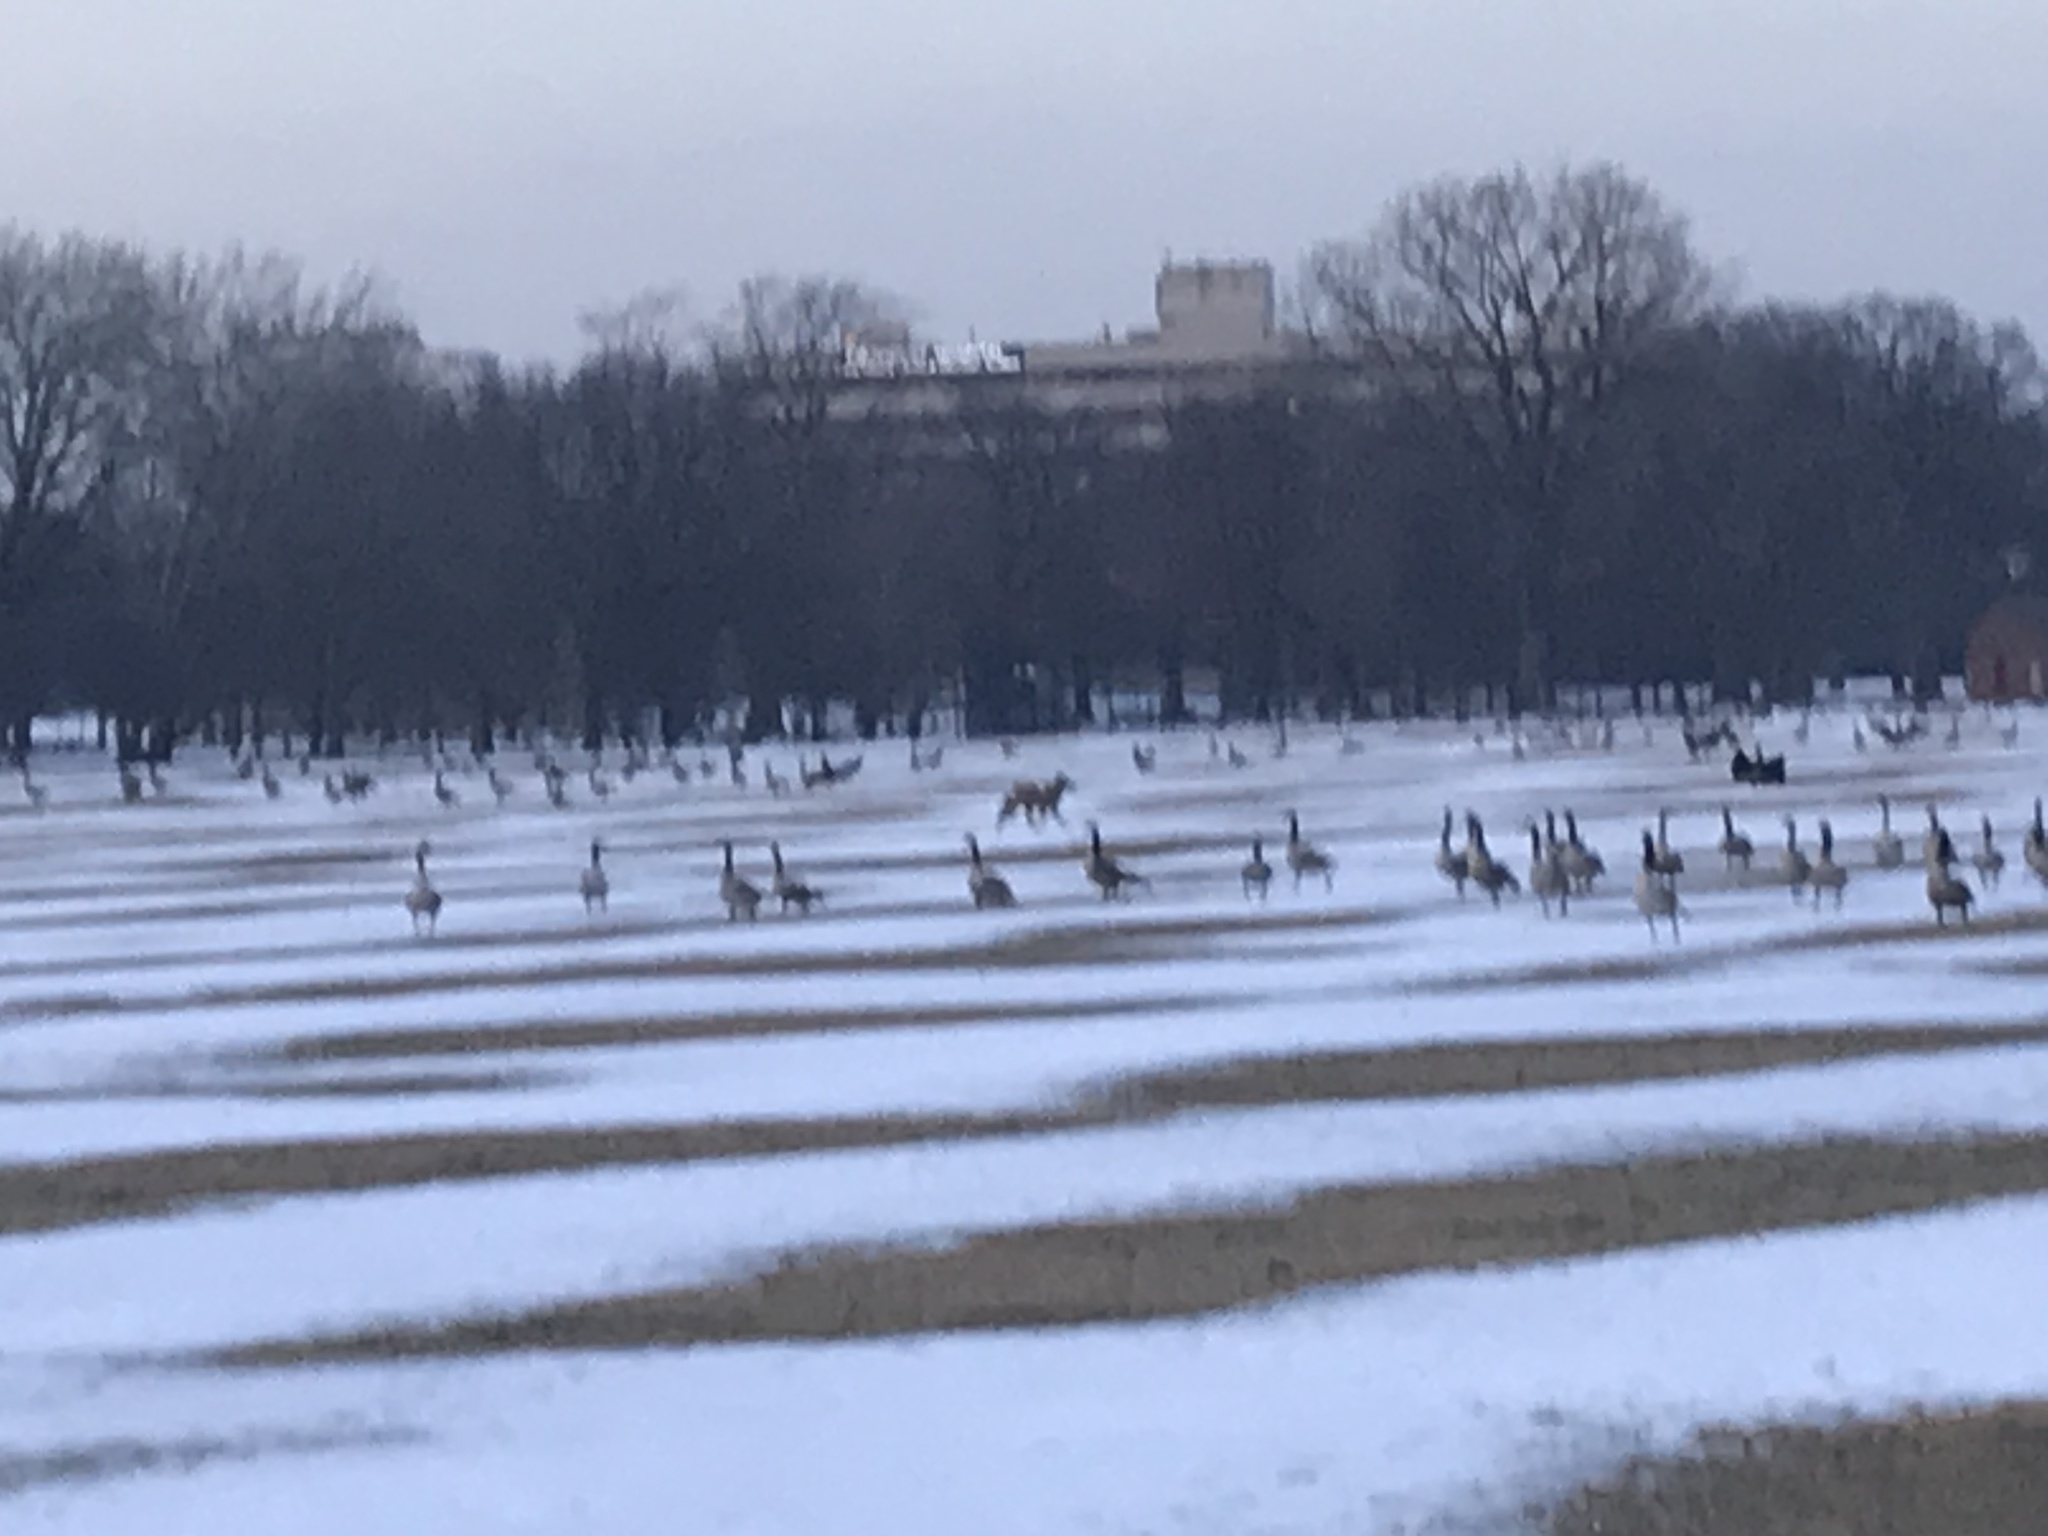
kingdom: Animalia
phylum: Chordata
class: Aves
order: Anseriformes
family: Anatidae
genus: Branta
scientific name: Branta canadensis
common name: Canada goose
